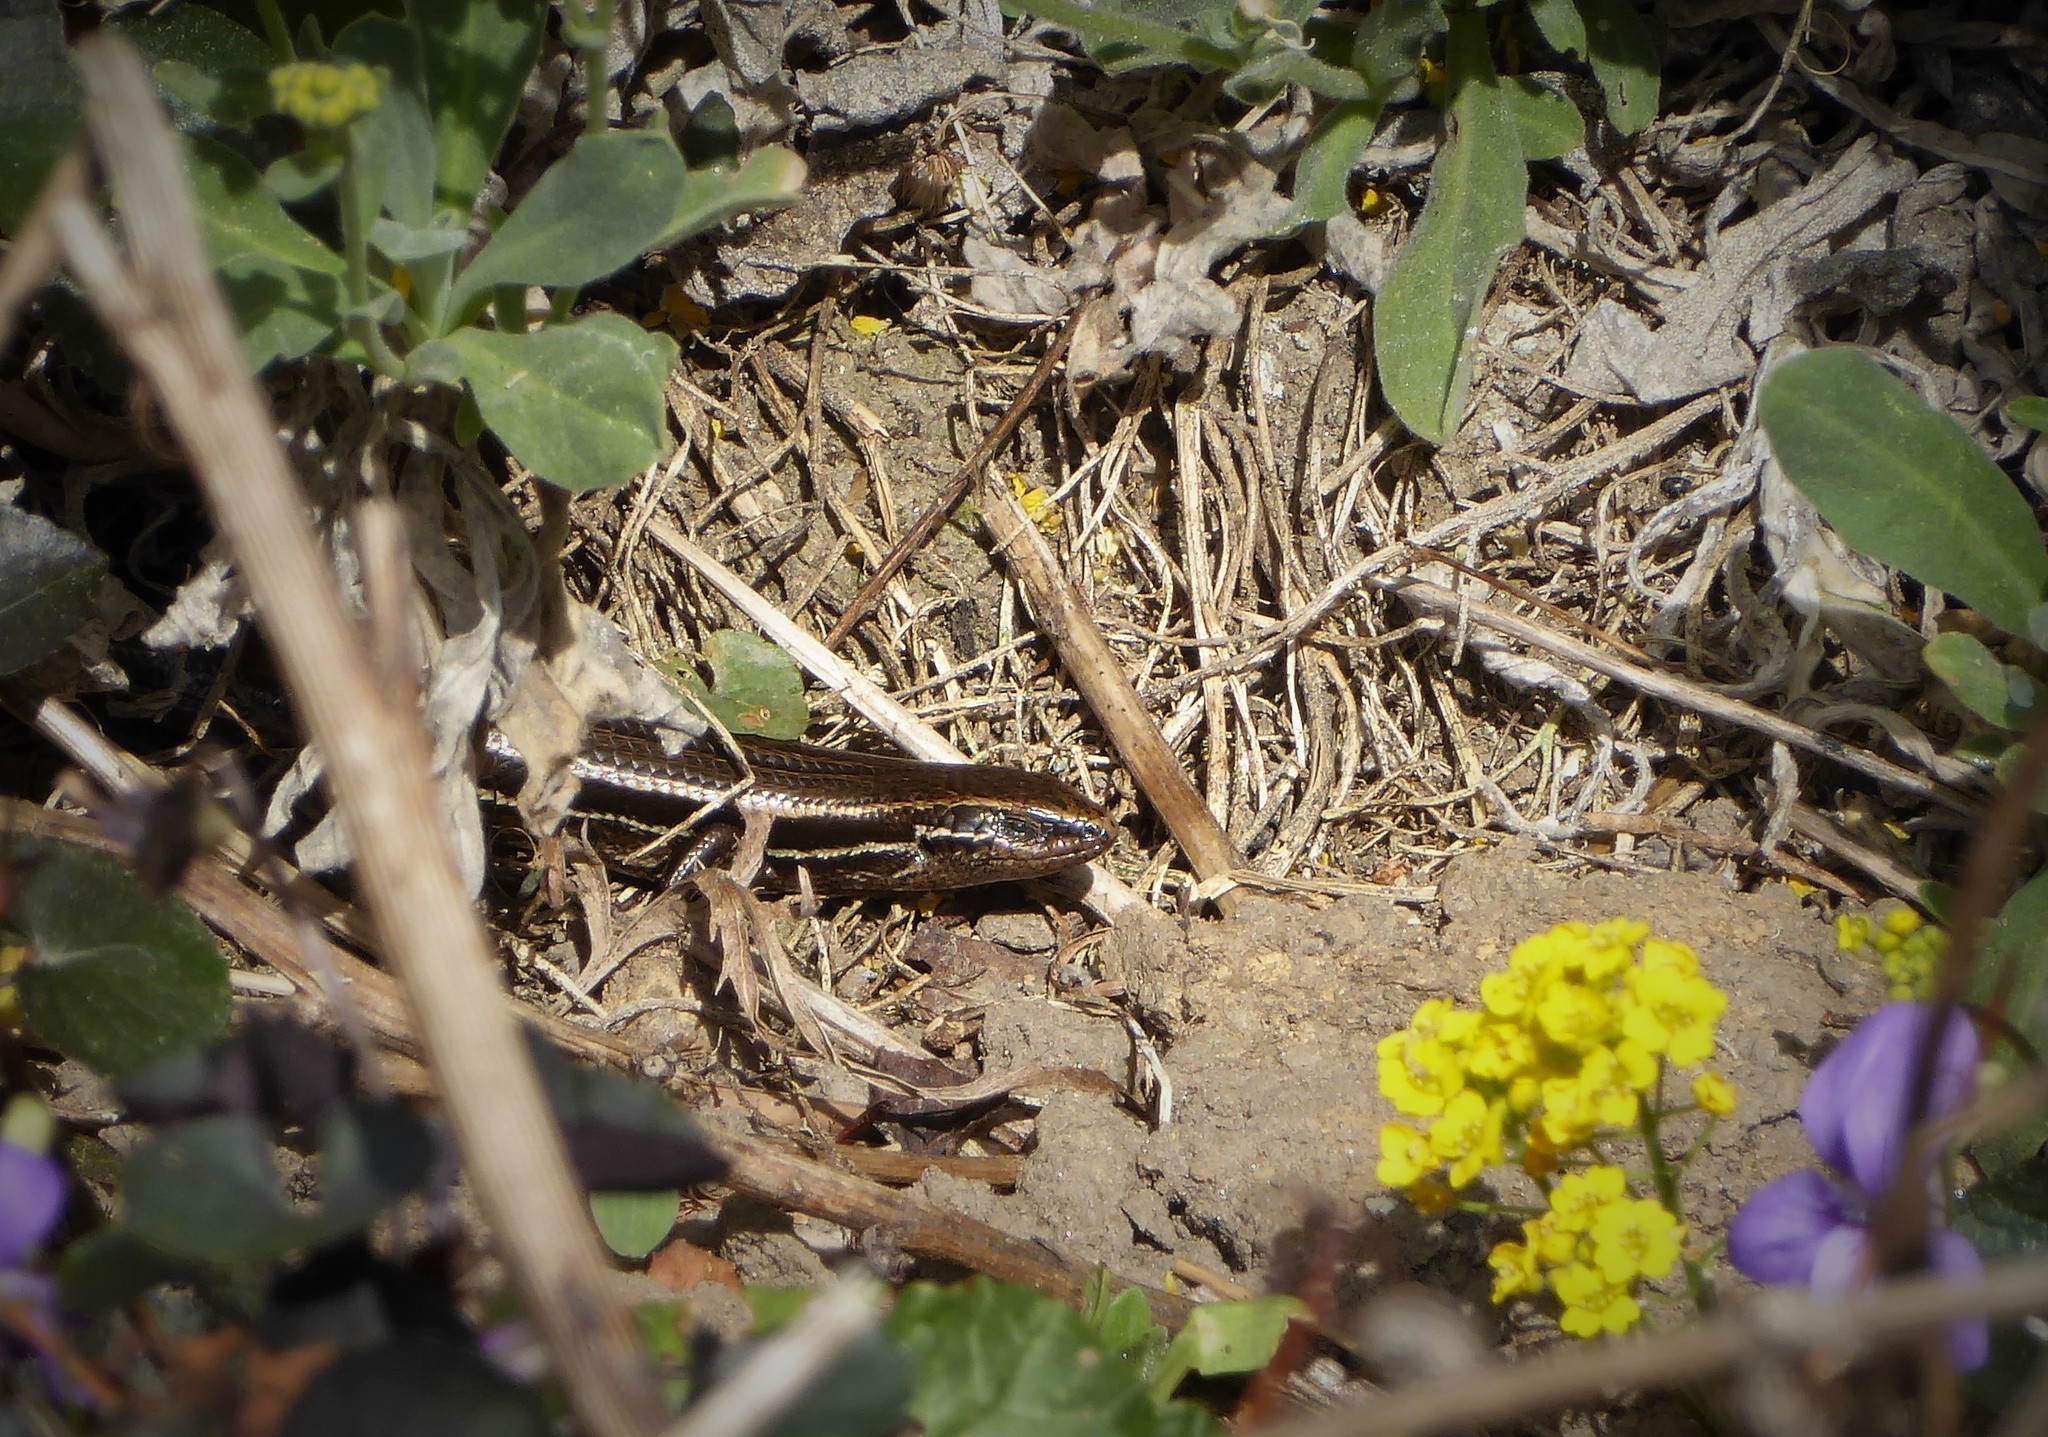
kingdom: Animalia
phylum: Chordata
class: Squamata
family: Scincidae
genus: Oligosoma
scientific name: Oligosoma polychroma
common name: Common new zealand skink
